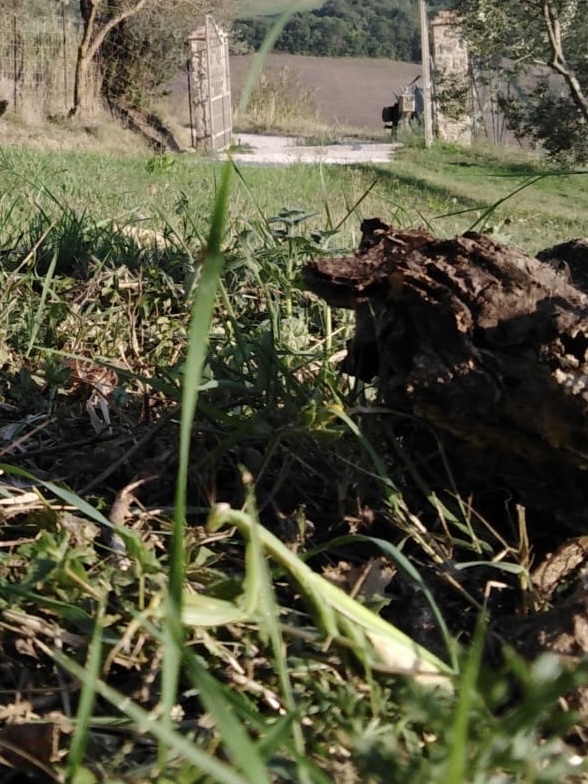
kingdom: Animalia
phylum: Arthropoda
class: Insecta
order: Mantodea
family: Mantidae
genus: Mantis
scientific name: Mantis religiosa
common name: Praying mantis
